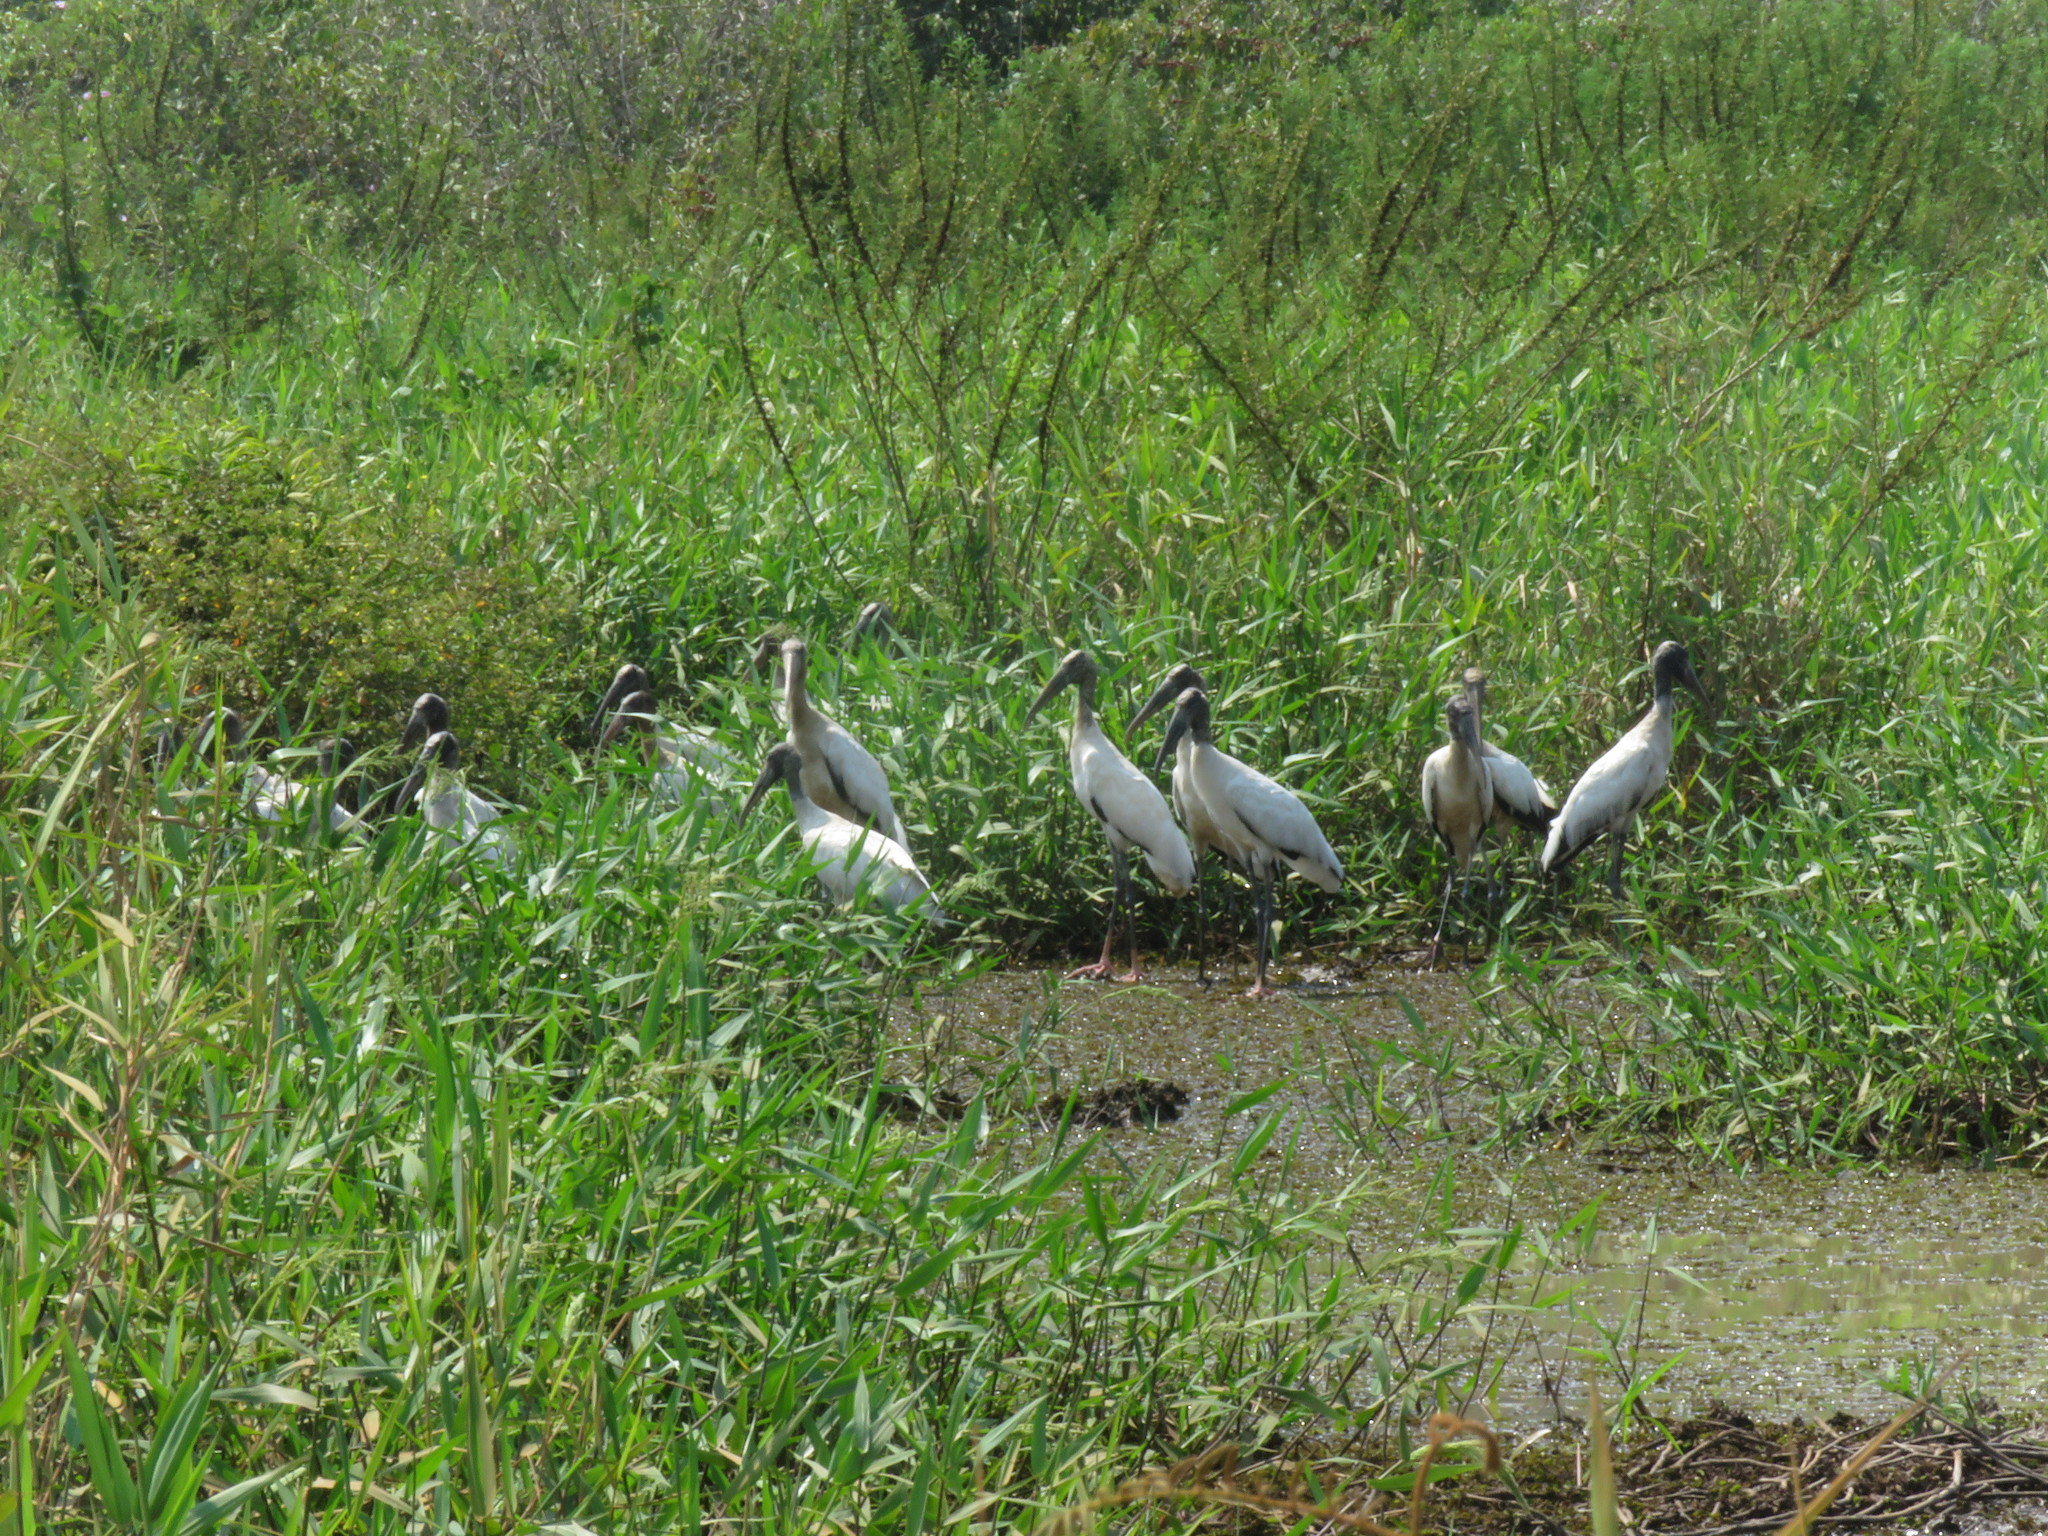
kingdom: Animalia
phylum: Chordata
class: Aves
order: Ciconiiformes
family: Ciconiidae
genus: Mycteria
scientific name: Mycteria americana
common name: Wood stork
